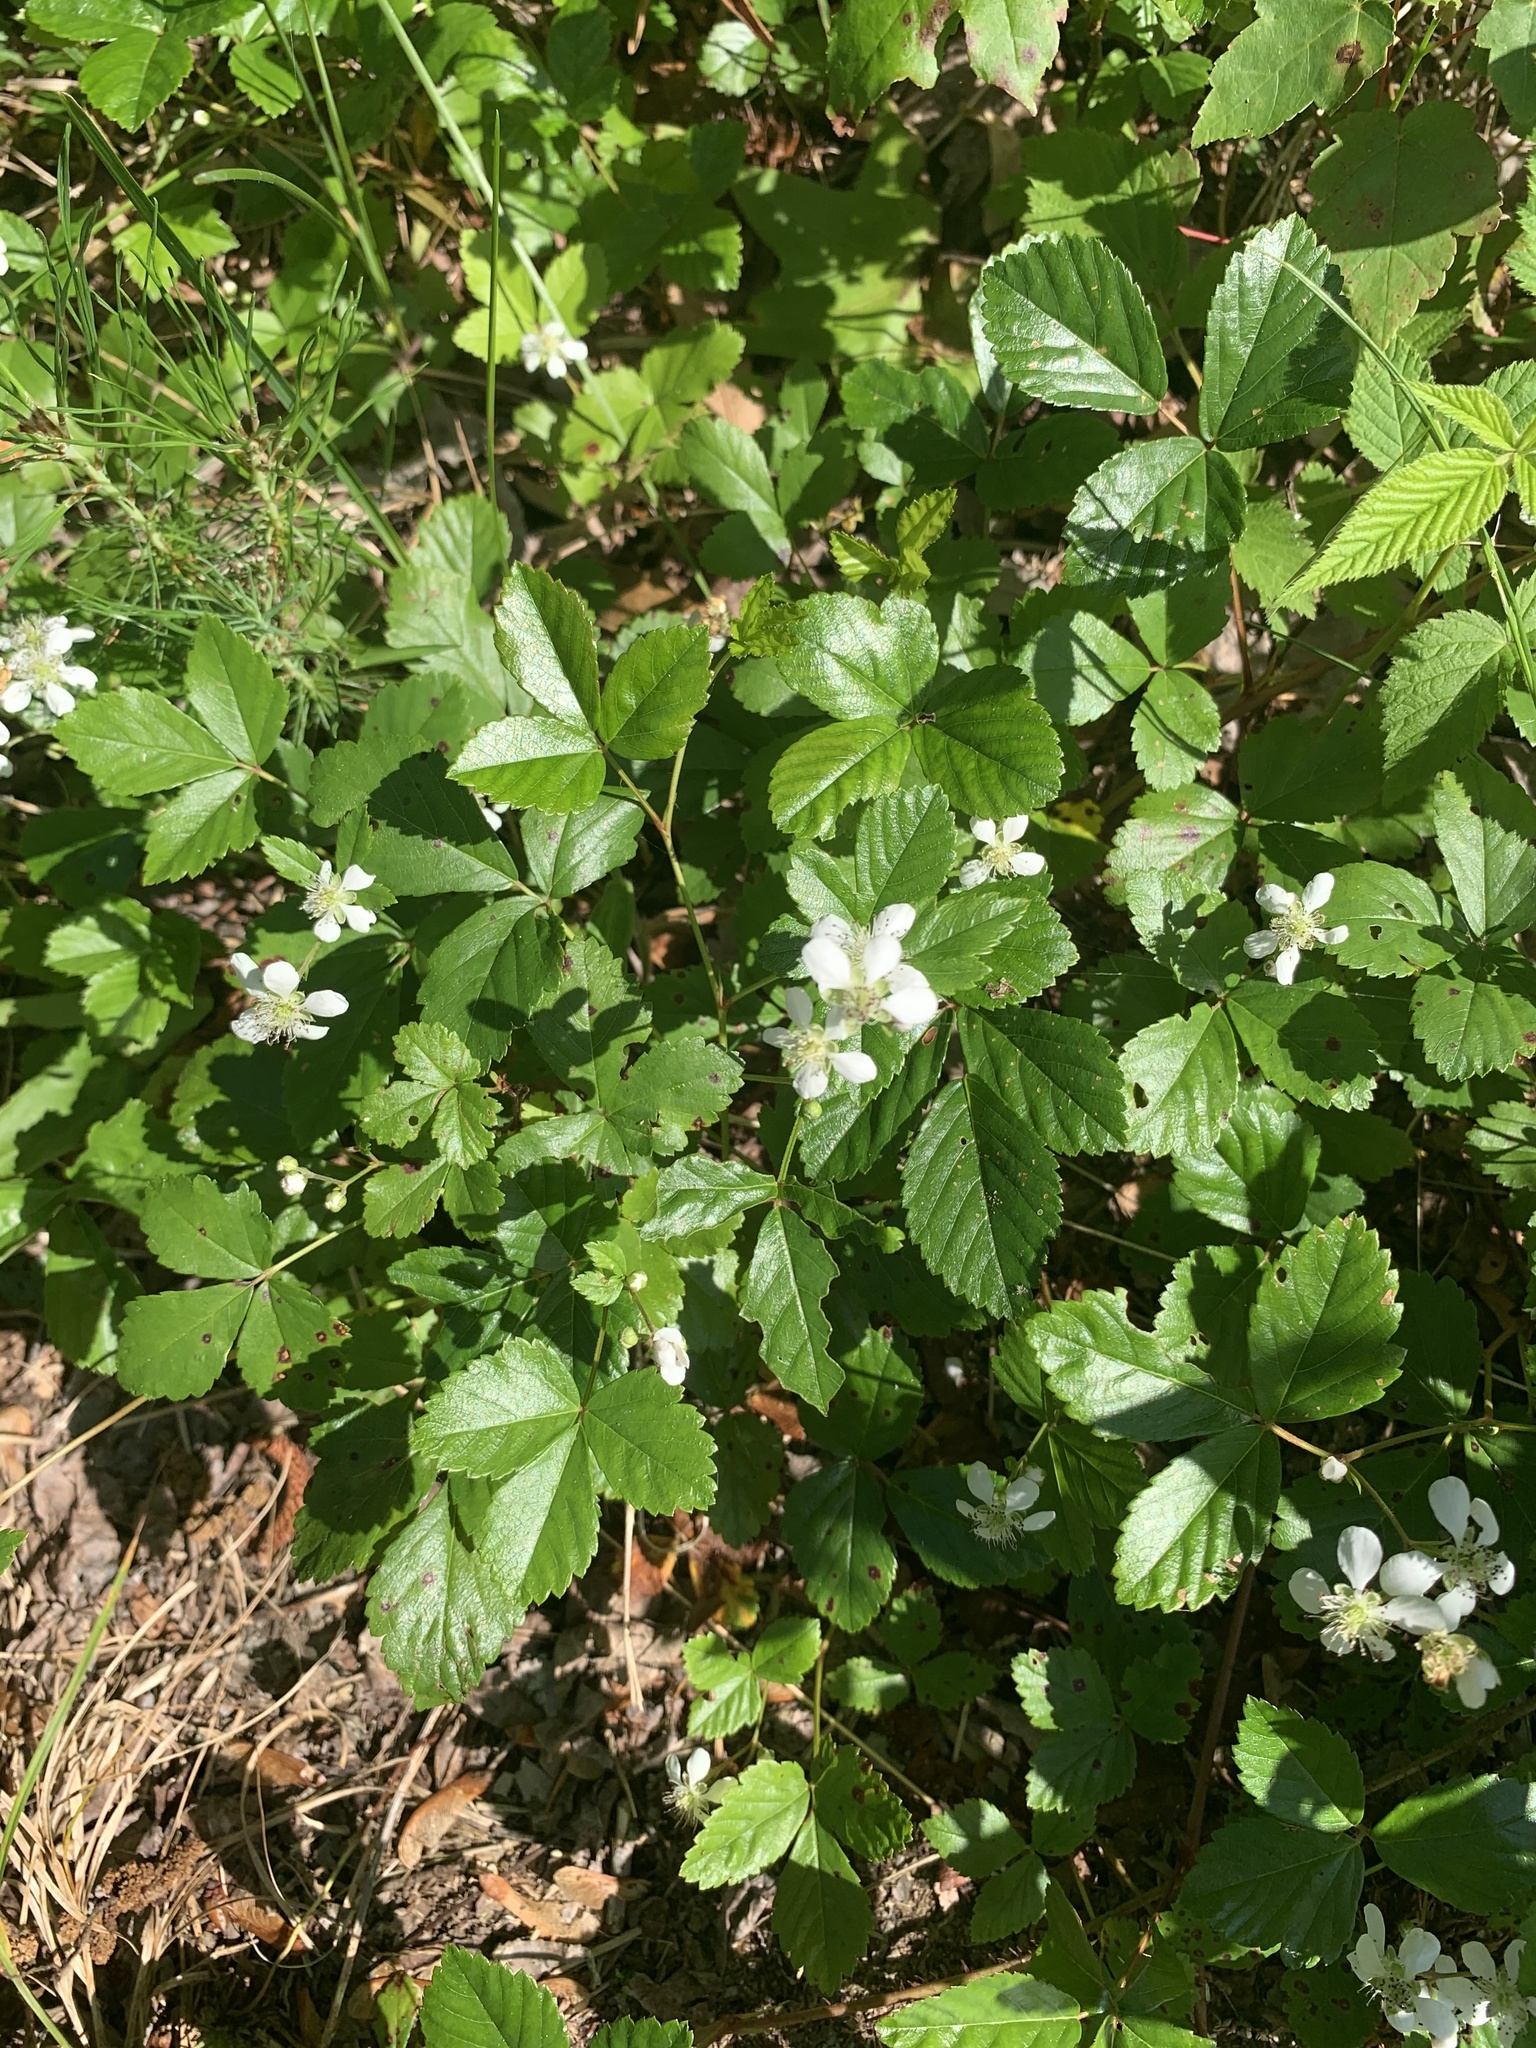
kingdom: Plantae
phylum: Tracheophyta
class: Magnoliopsida
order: Rosales
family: Rosaceae
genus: Rubus
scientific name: Rubus hispidus
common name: Running blackberry
